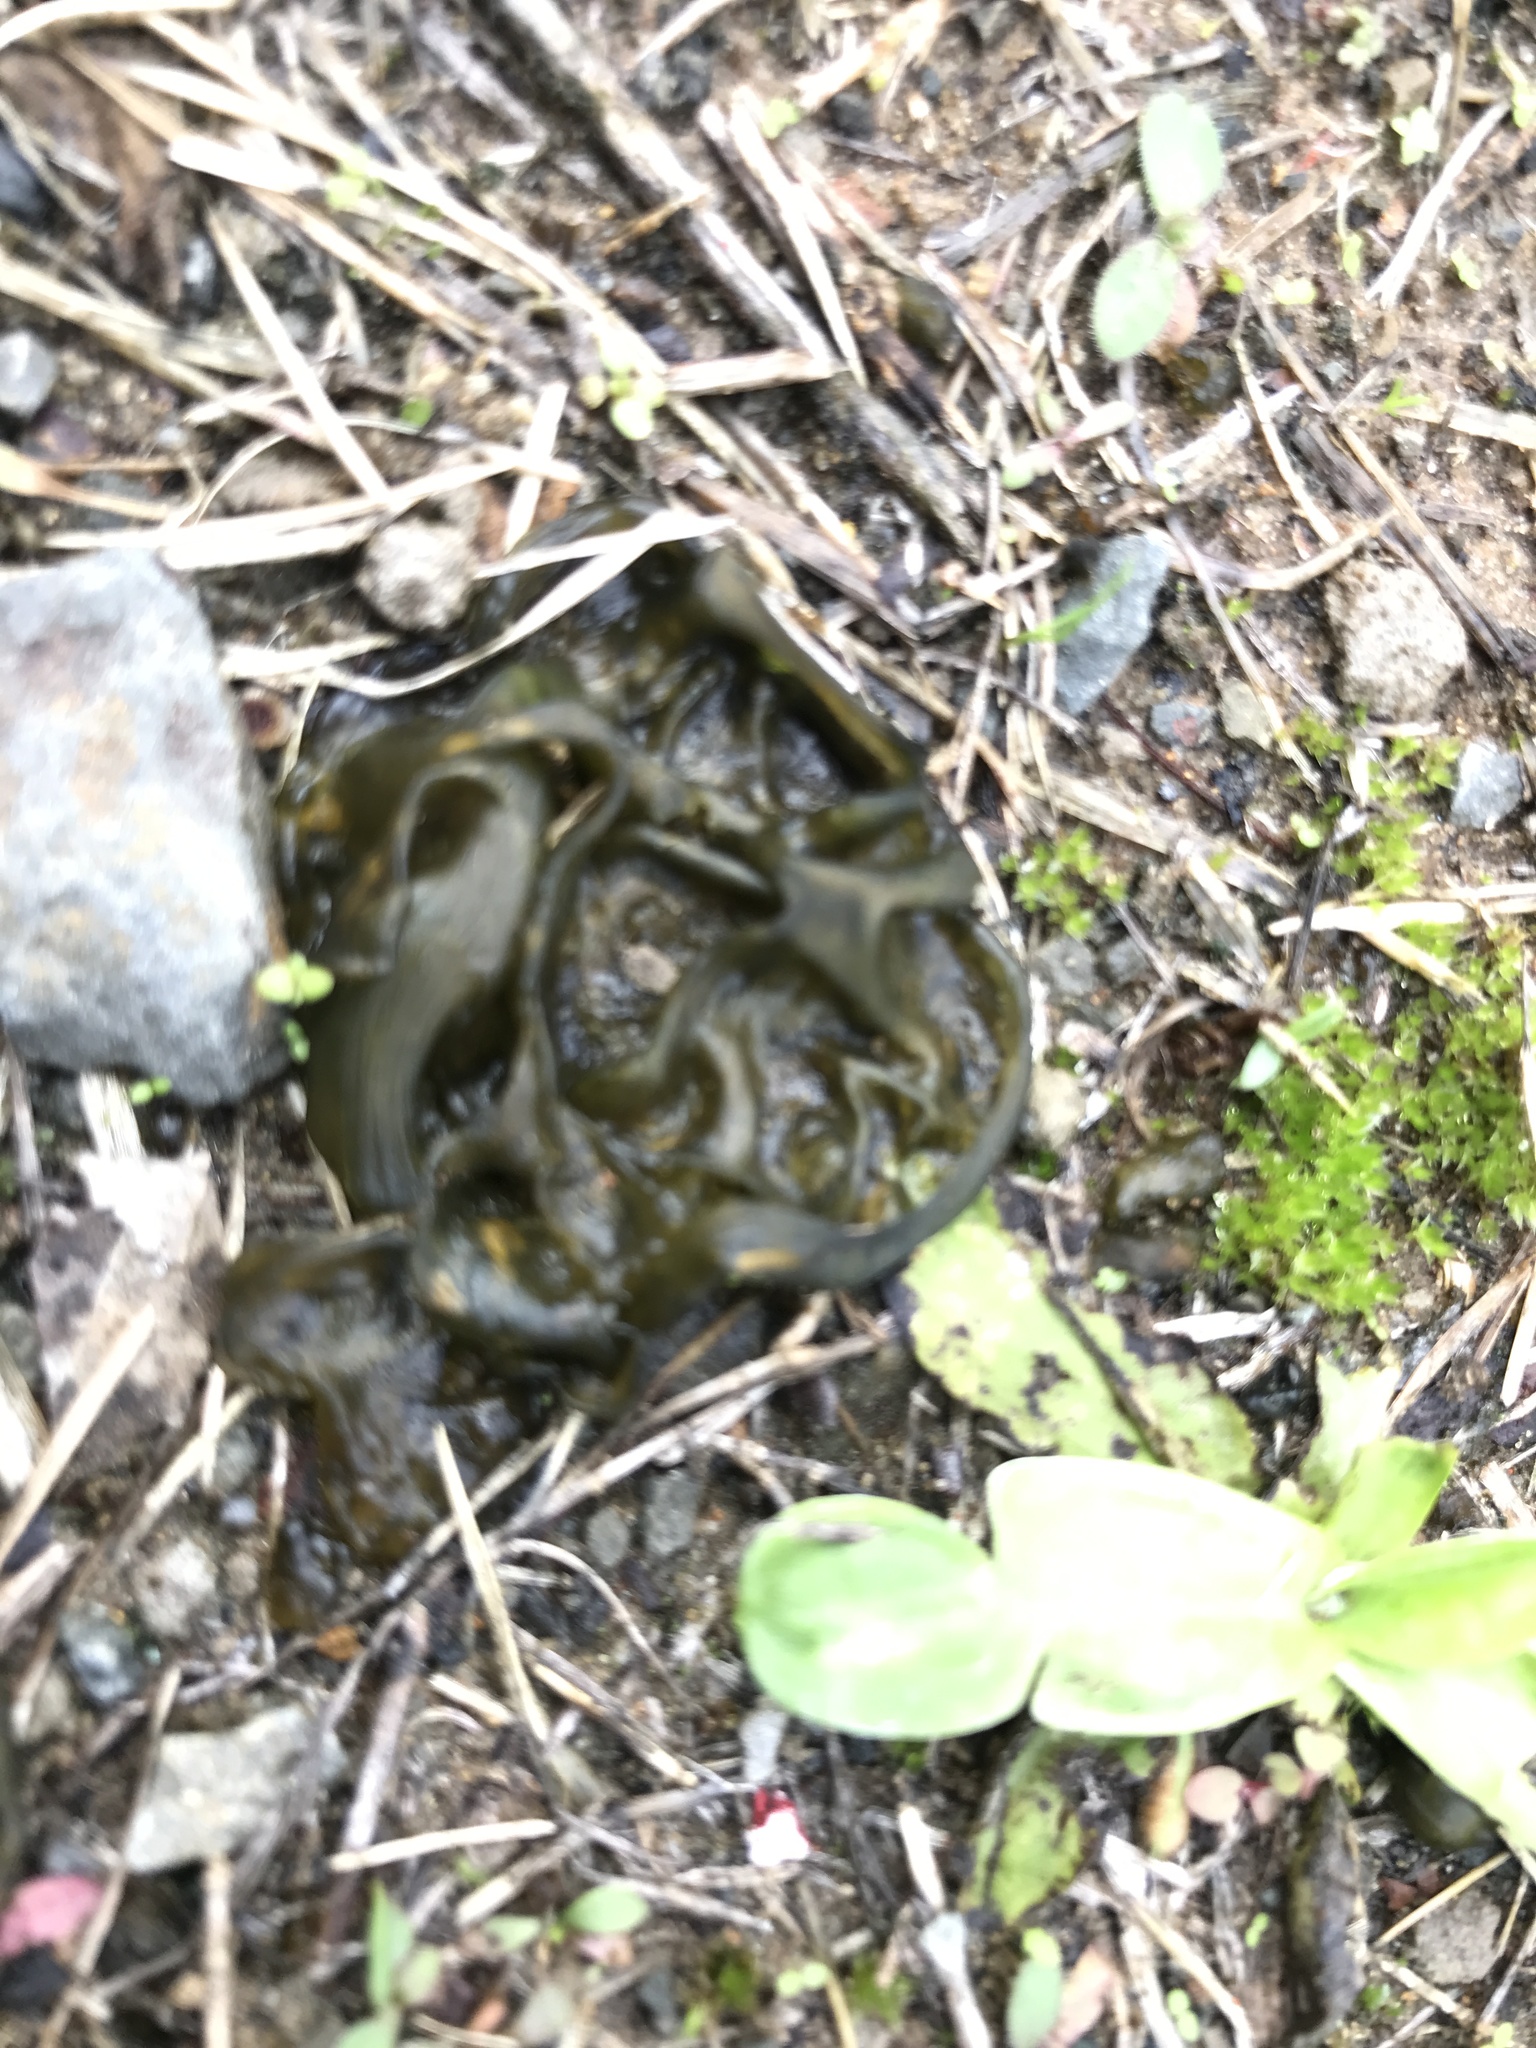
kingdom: Bacteria
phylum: Cyanobacteria
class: Cyanobacteriia
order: Cyanobacteriales
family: Nostocaceae
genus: Nostoc
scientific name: Nostoc commune
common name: Star jelly
